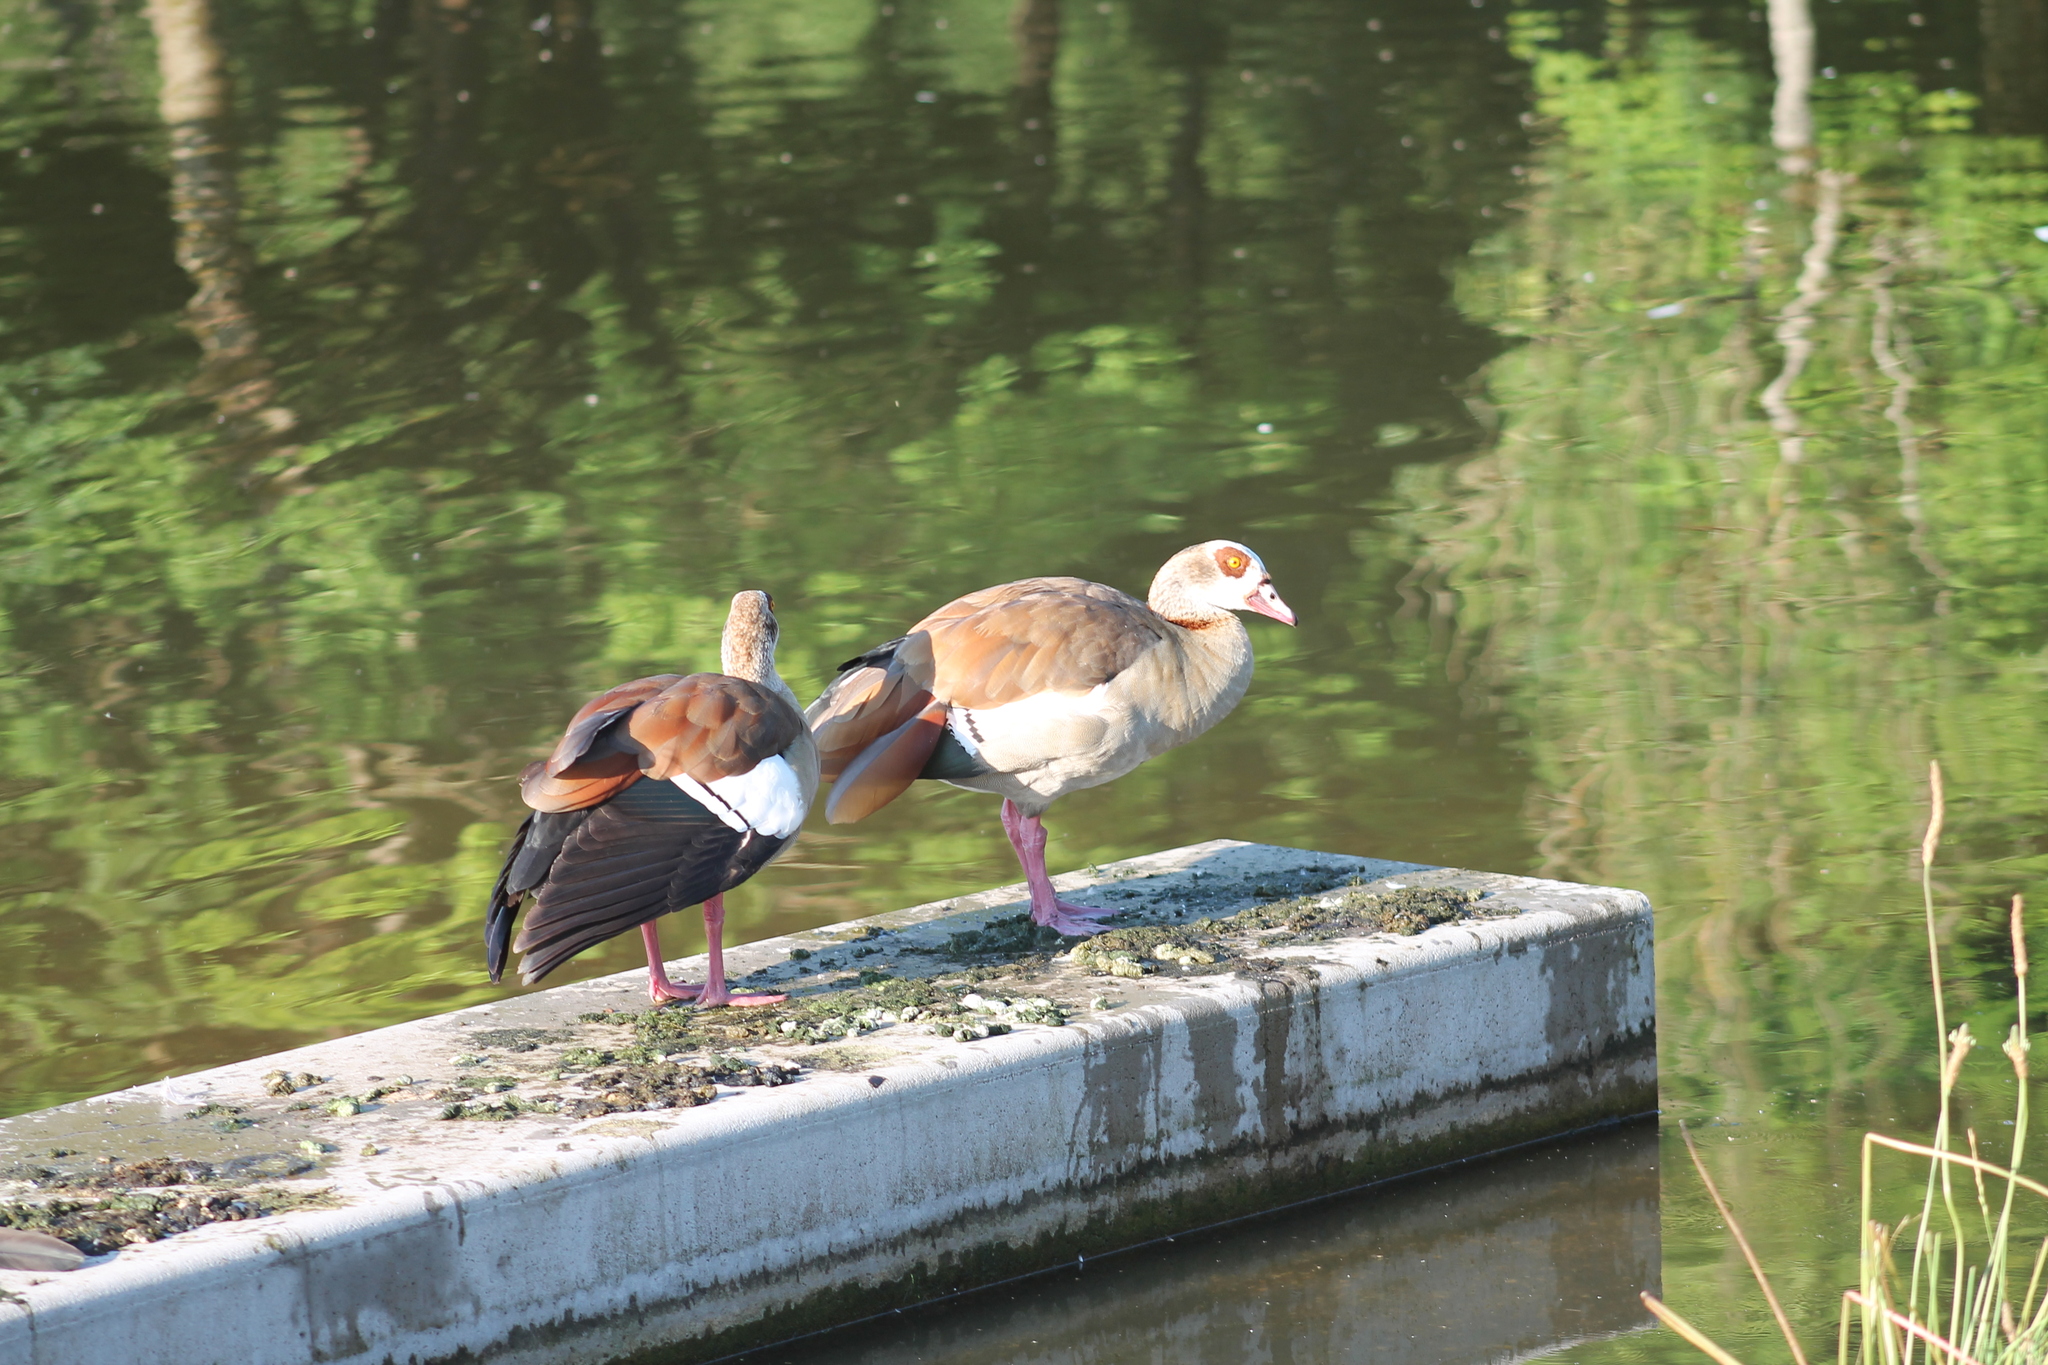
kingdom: Animalia
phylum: Chordata
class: Aves
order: Anseriformes
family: Anatidae
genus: Alopochen
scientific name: Alopochen aegyptiaca
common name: Egyptian goose
